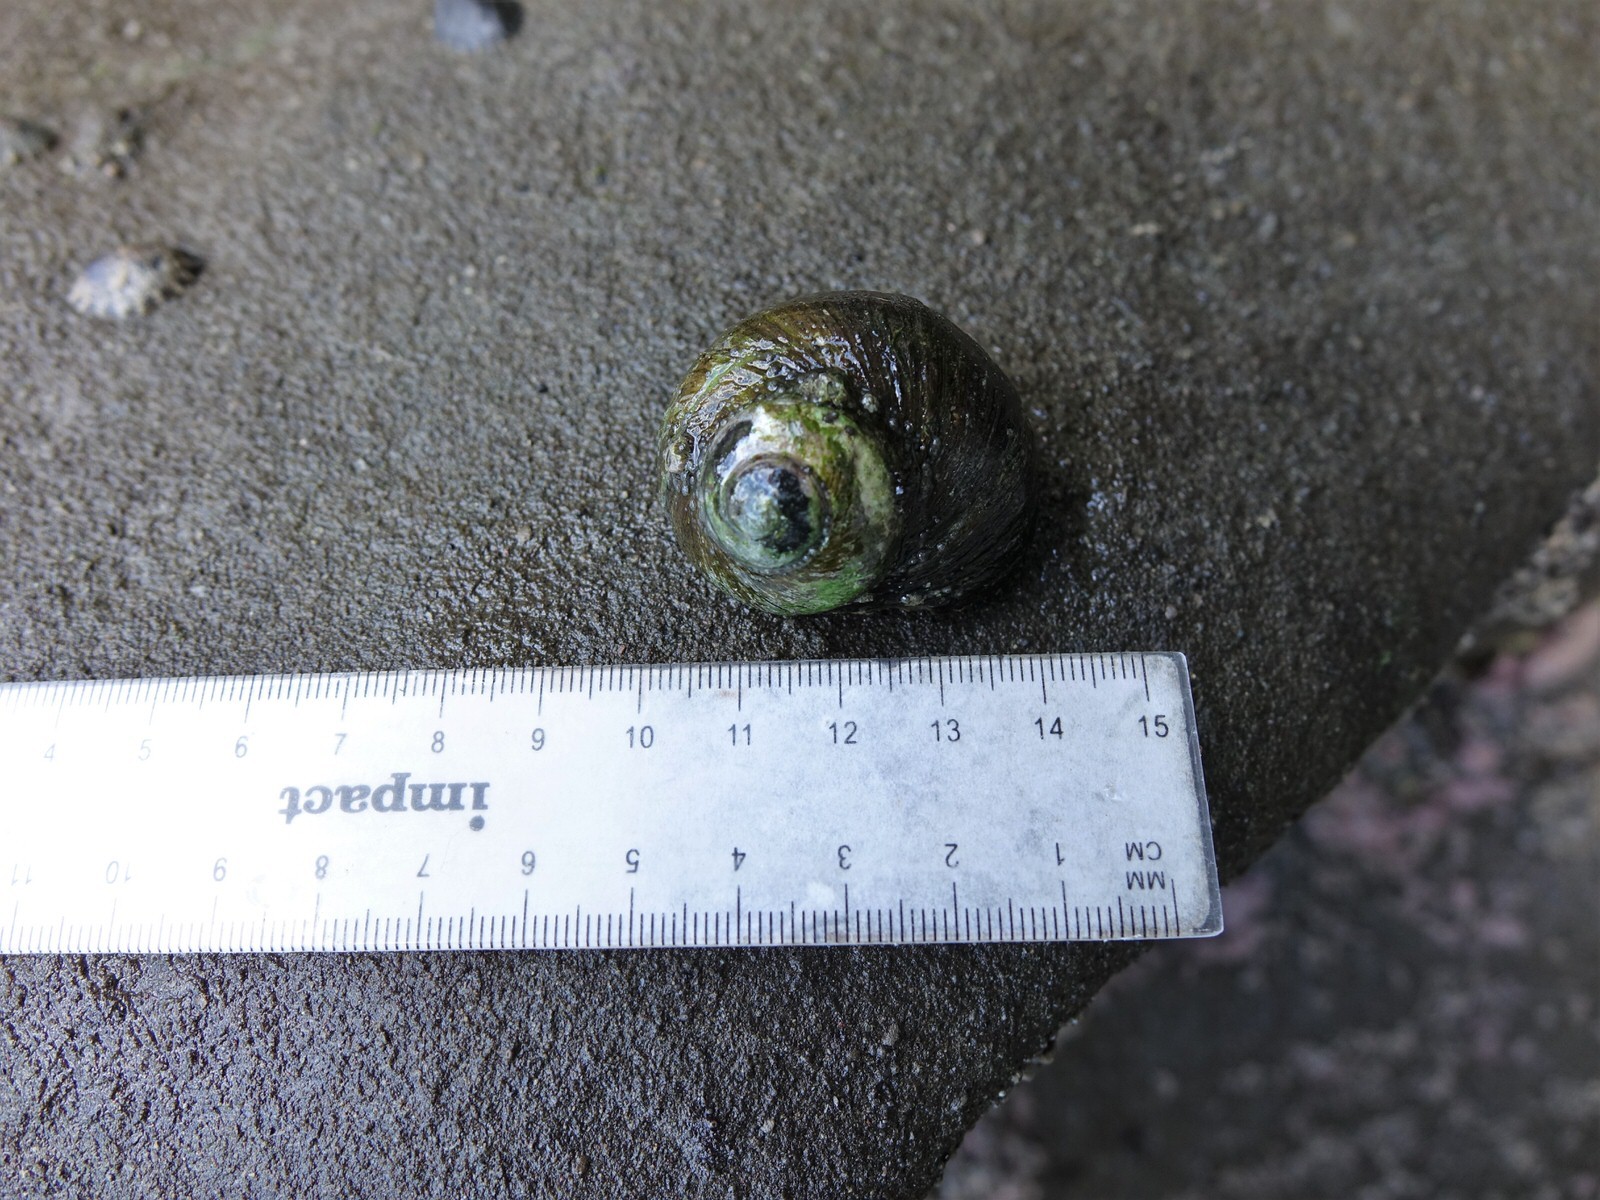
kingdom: Animalia
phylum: Mollusca
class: Gastropoda
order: Trochida
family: Turbinidae
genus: Lunella
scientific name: Lunella smaragda
